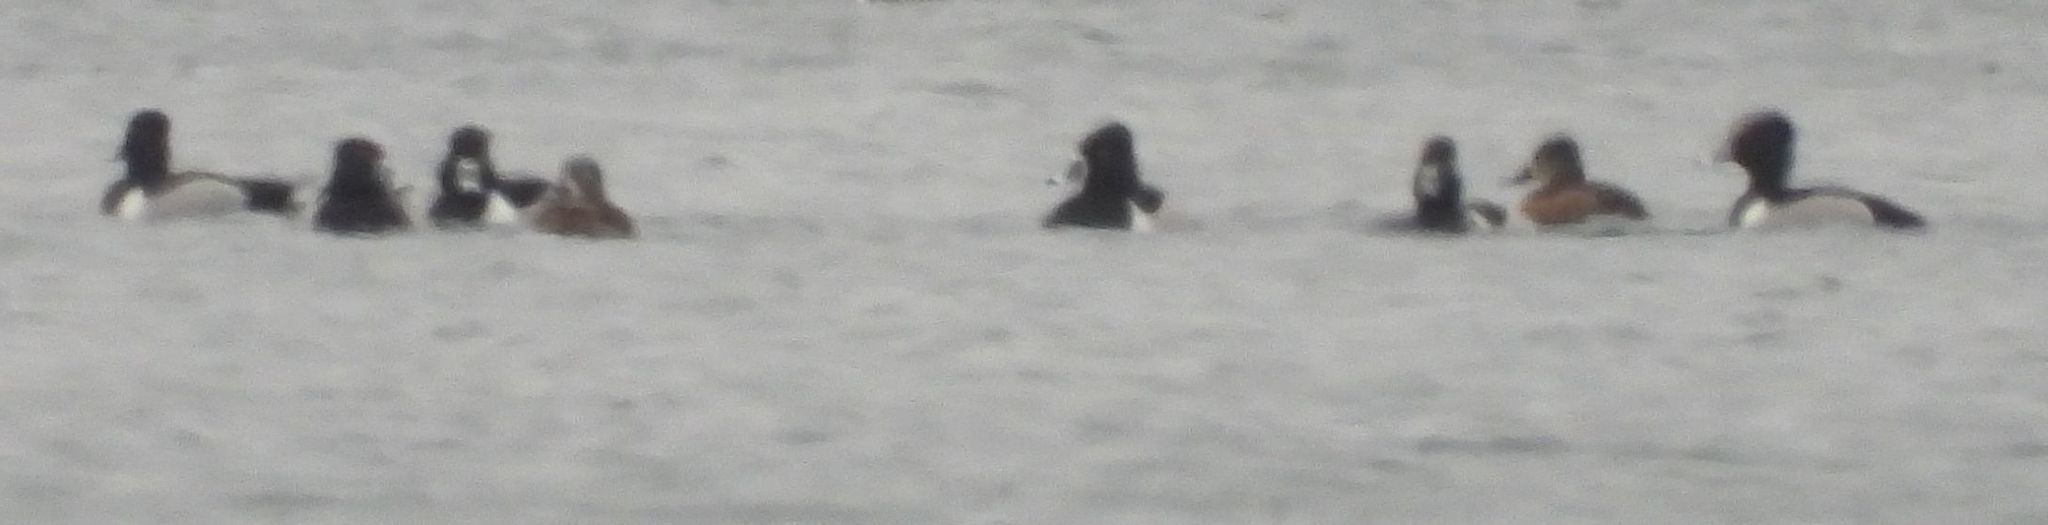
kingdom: Animalia
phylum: Chordata
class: Aves
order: Anseriformes
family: Anatidae
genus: Aythya
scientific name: Aythya collaris
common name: Ring-necked duck
